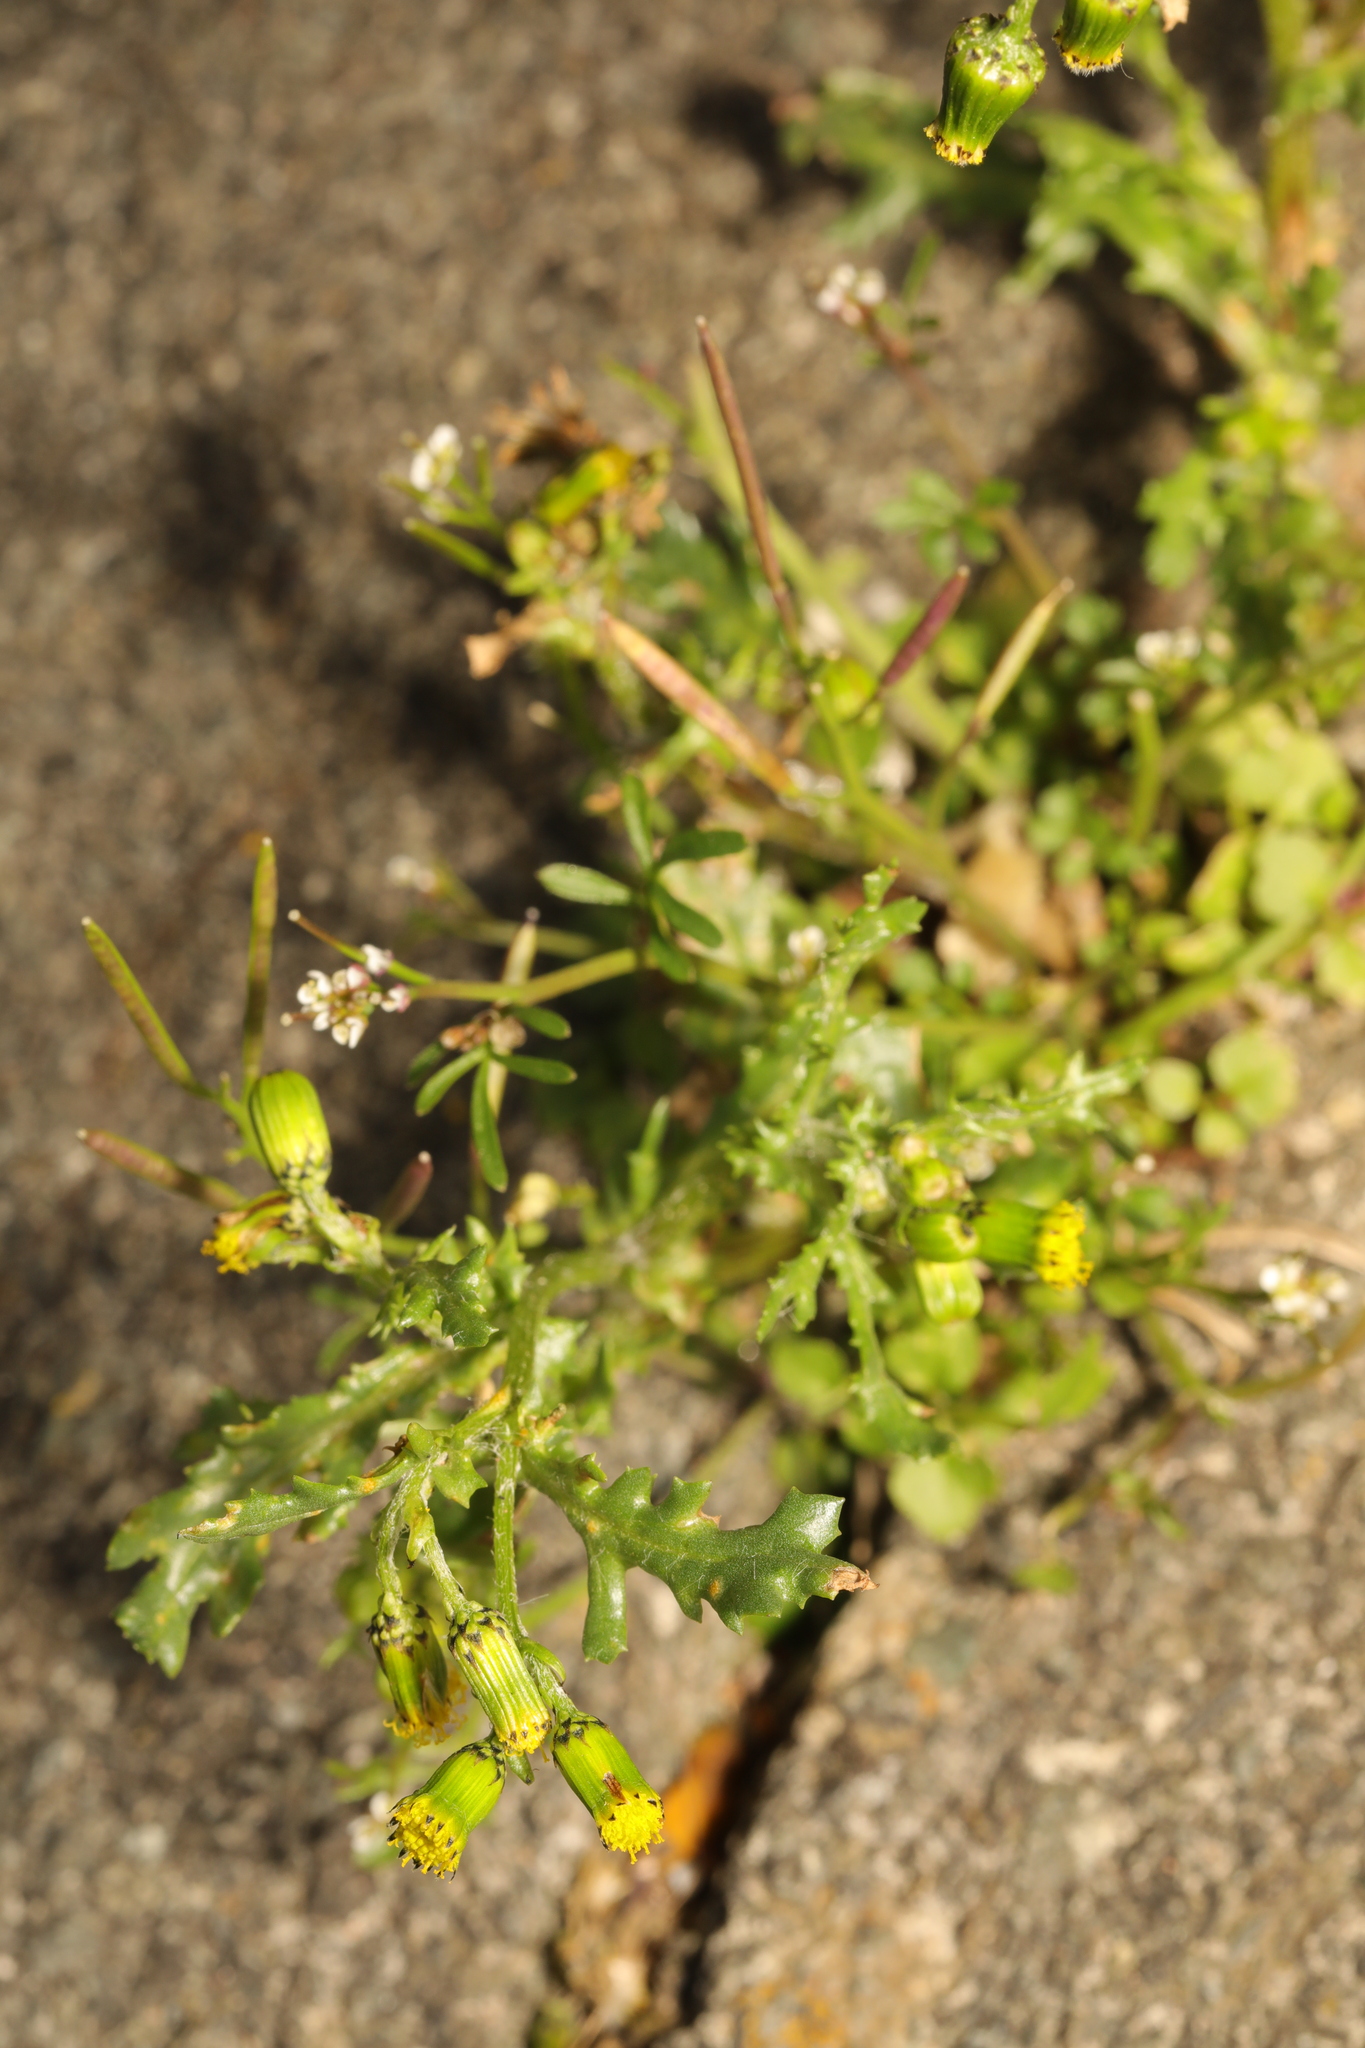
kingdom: Plantae
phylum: Tracheophyta
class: Magnoliopsida
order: Asterales
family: Asteraceae
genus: Senecio
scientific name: Senecio vulgaris
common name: Old-man-in-the-spring
